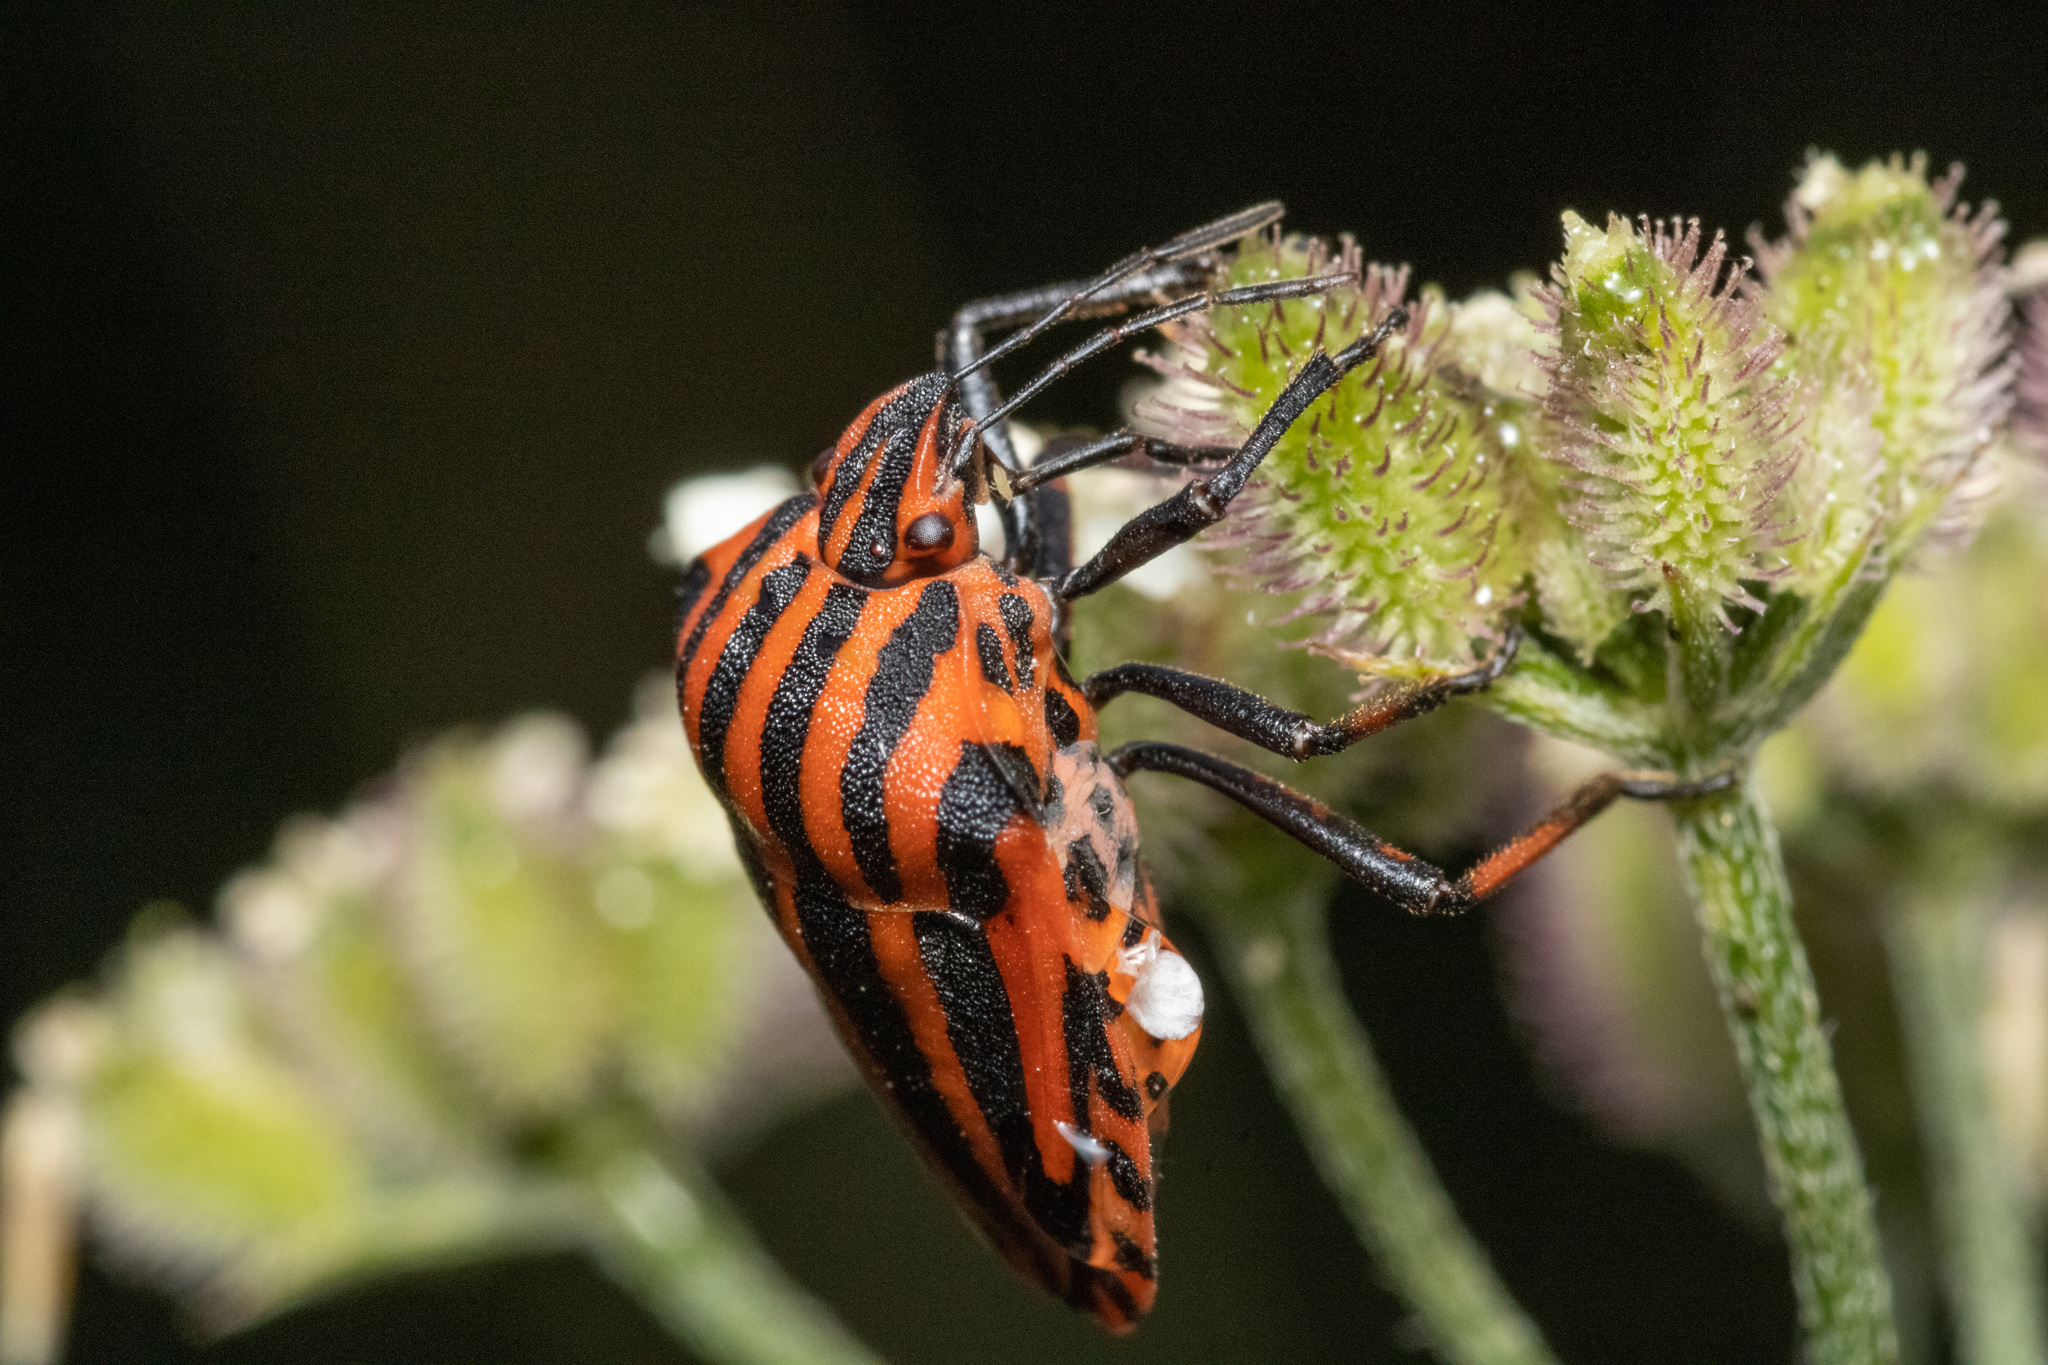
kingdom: Animalia
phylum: Arthropoda
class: Insecta
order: Hemiptera
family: Pentatomidae
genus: Graphosoma
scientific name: Graphosoma italicum
